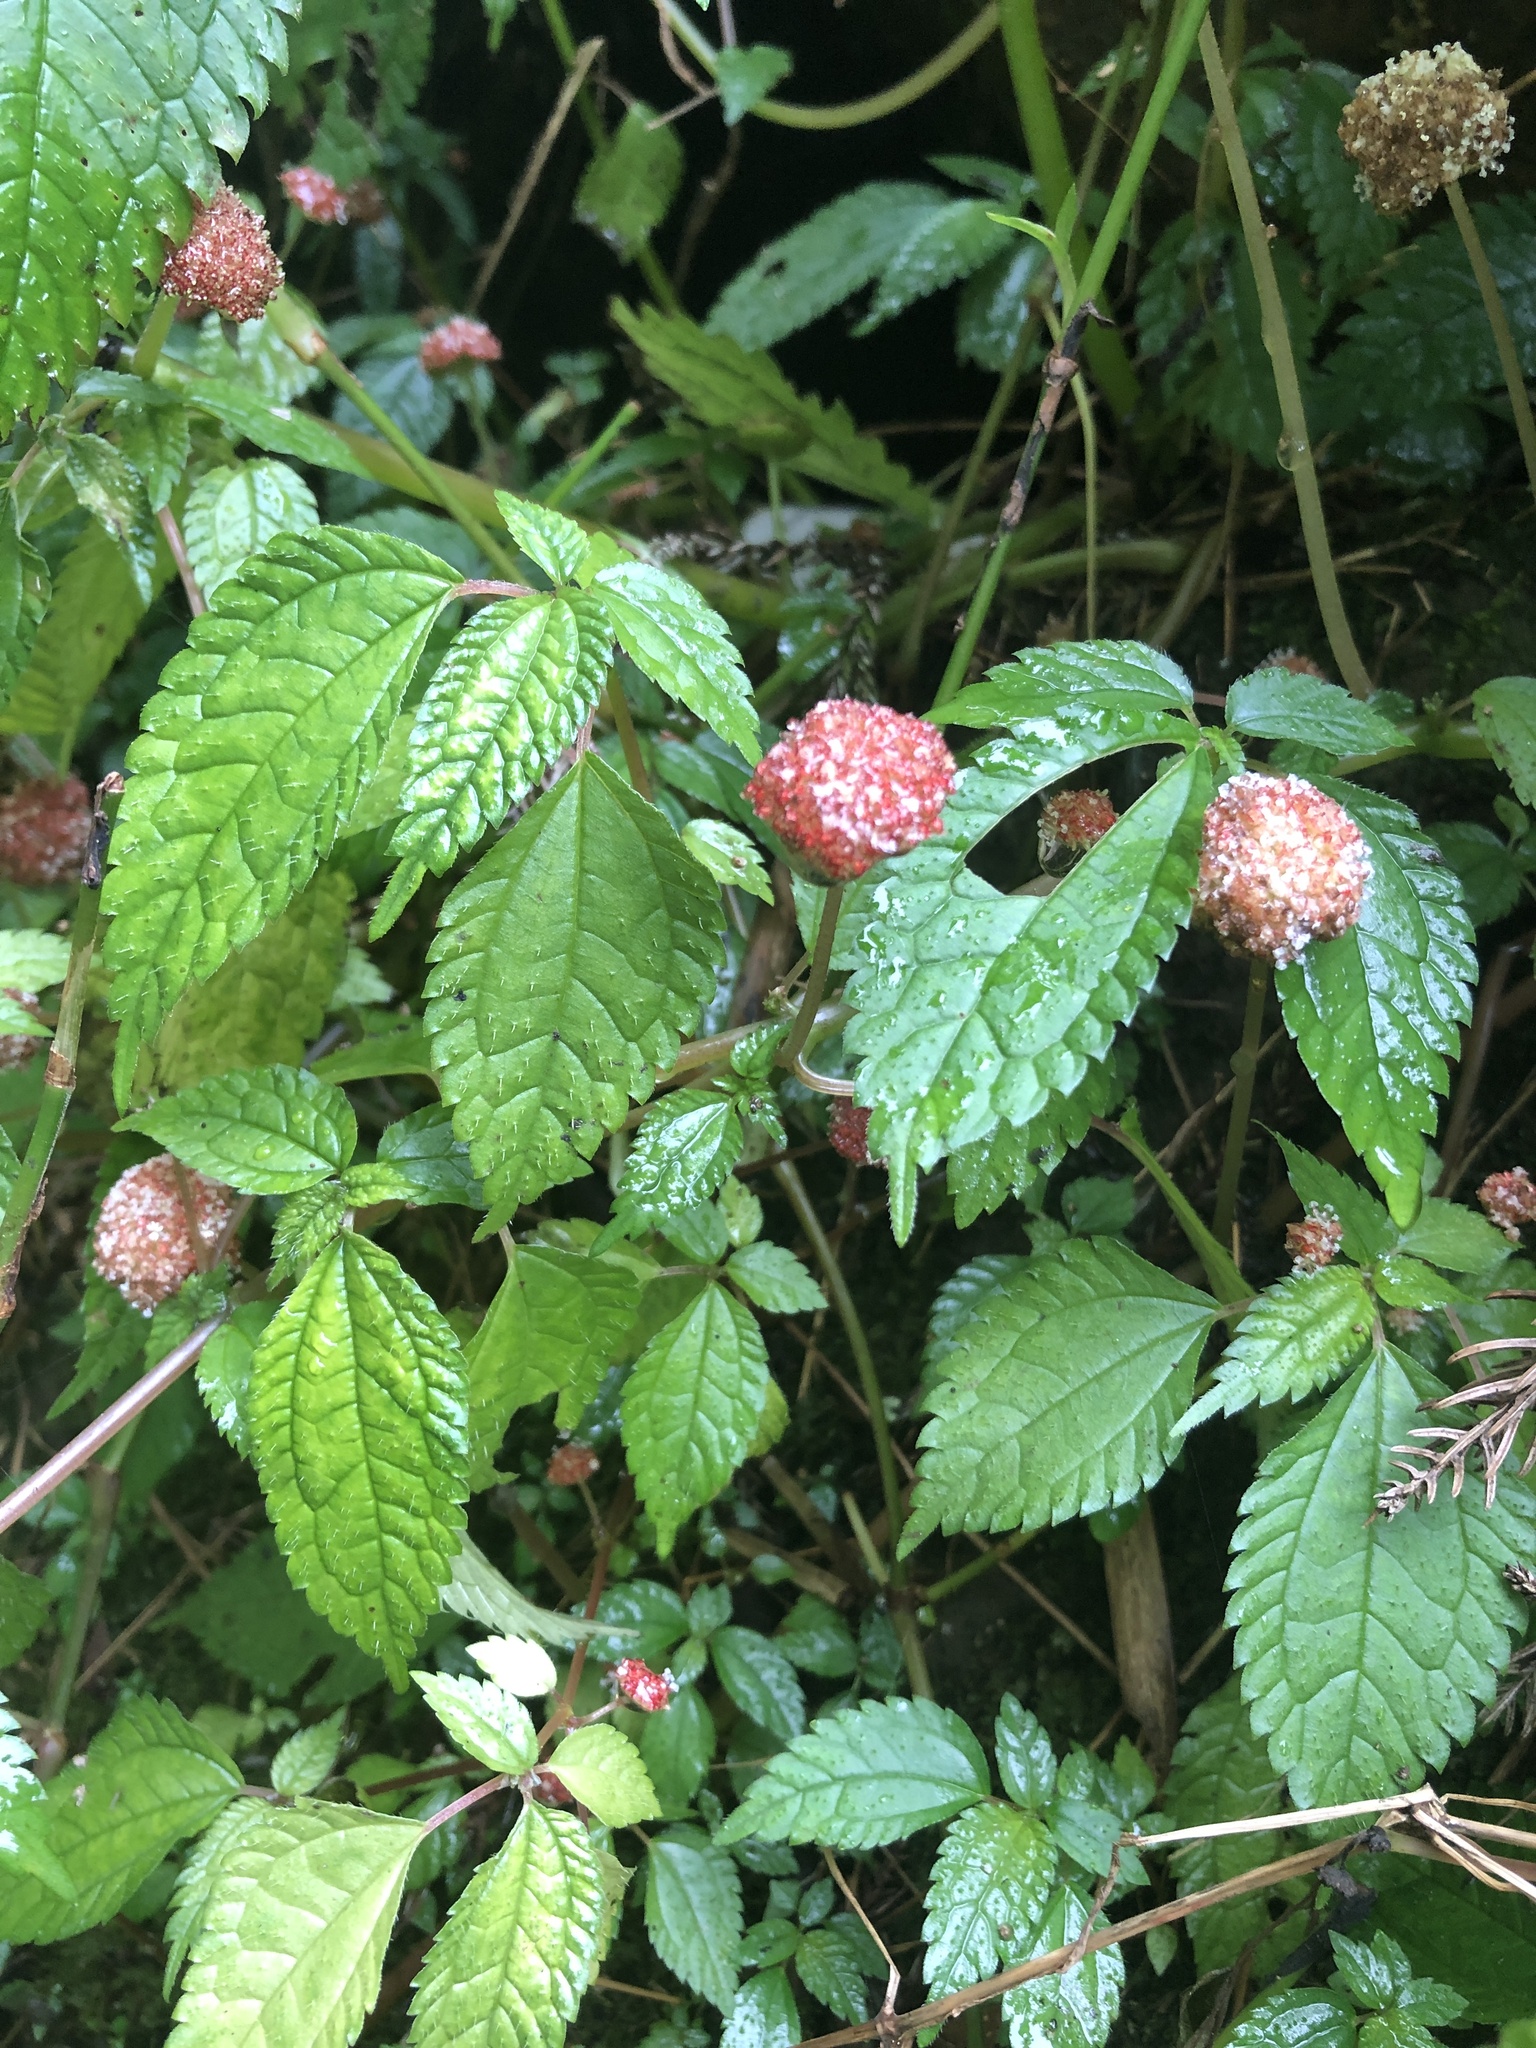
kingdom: Plantae
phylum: Tracheophyta
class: Magnoliopsida
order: Rosales
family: Urticaceae
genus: Lecanthus
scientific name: Lecanthus peduncularis
